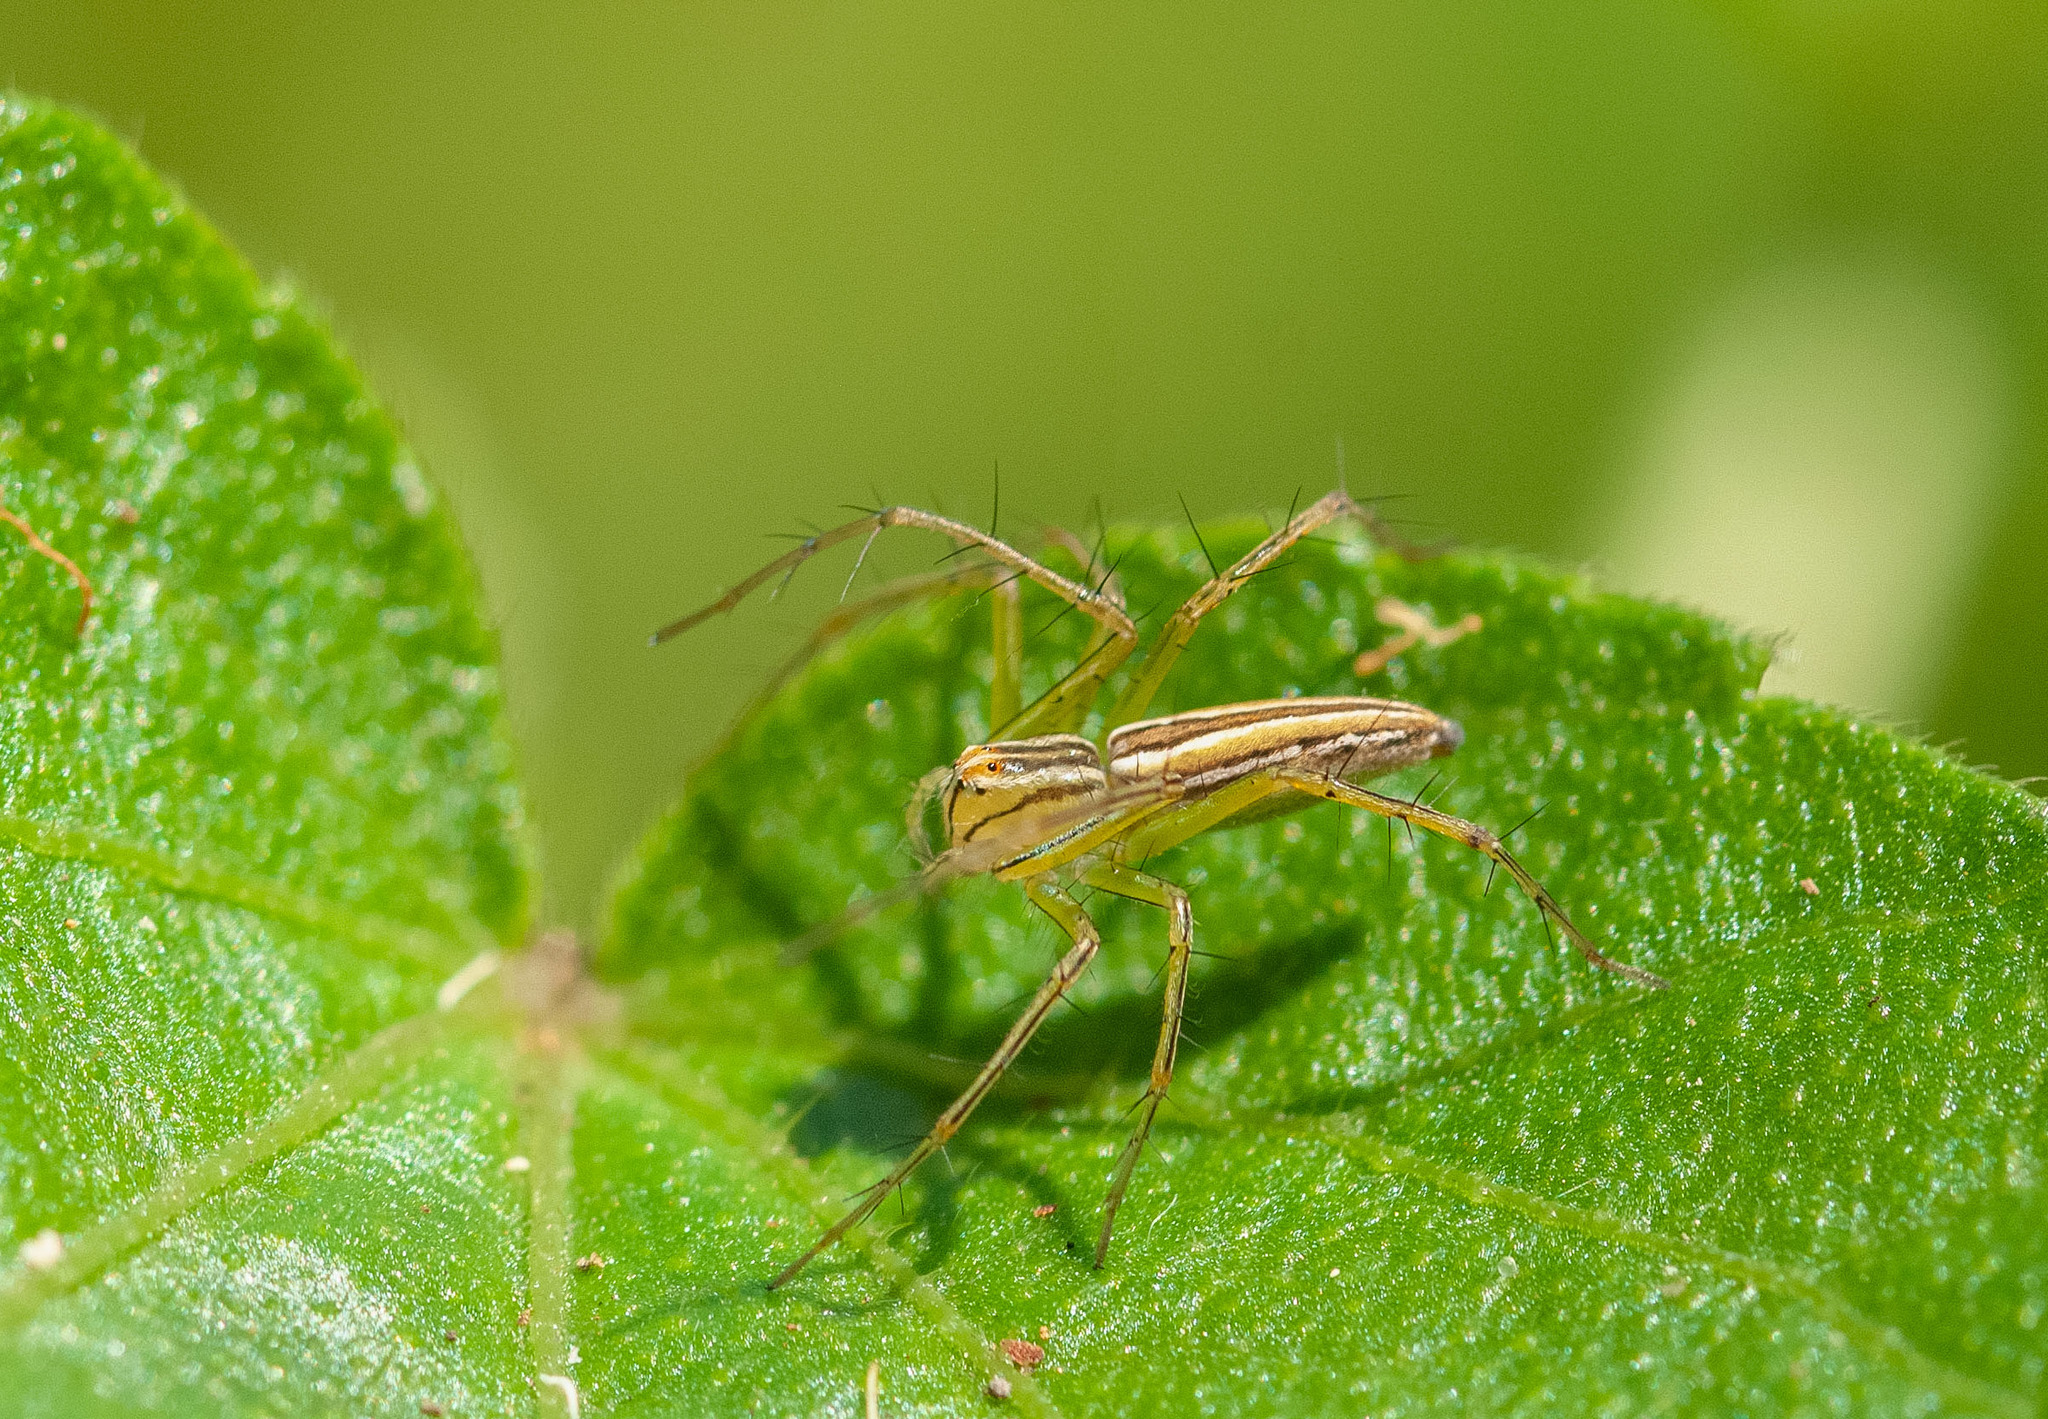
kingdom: Animalia
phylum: Arthropoda
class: Arachnida
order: Araneae
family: Oxyopidae
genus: Oxyopes
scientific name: Oxyopes macilentus
